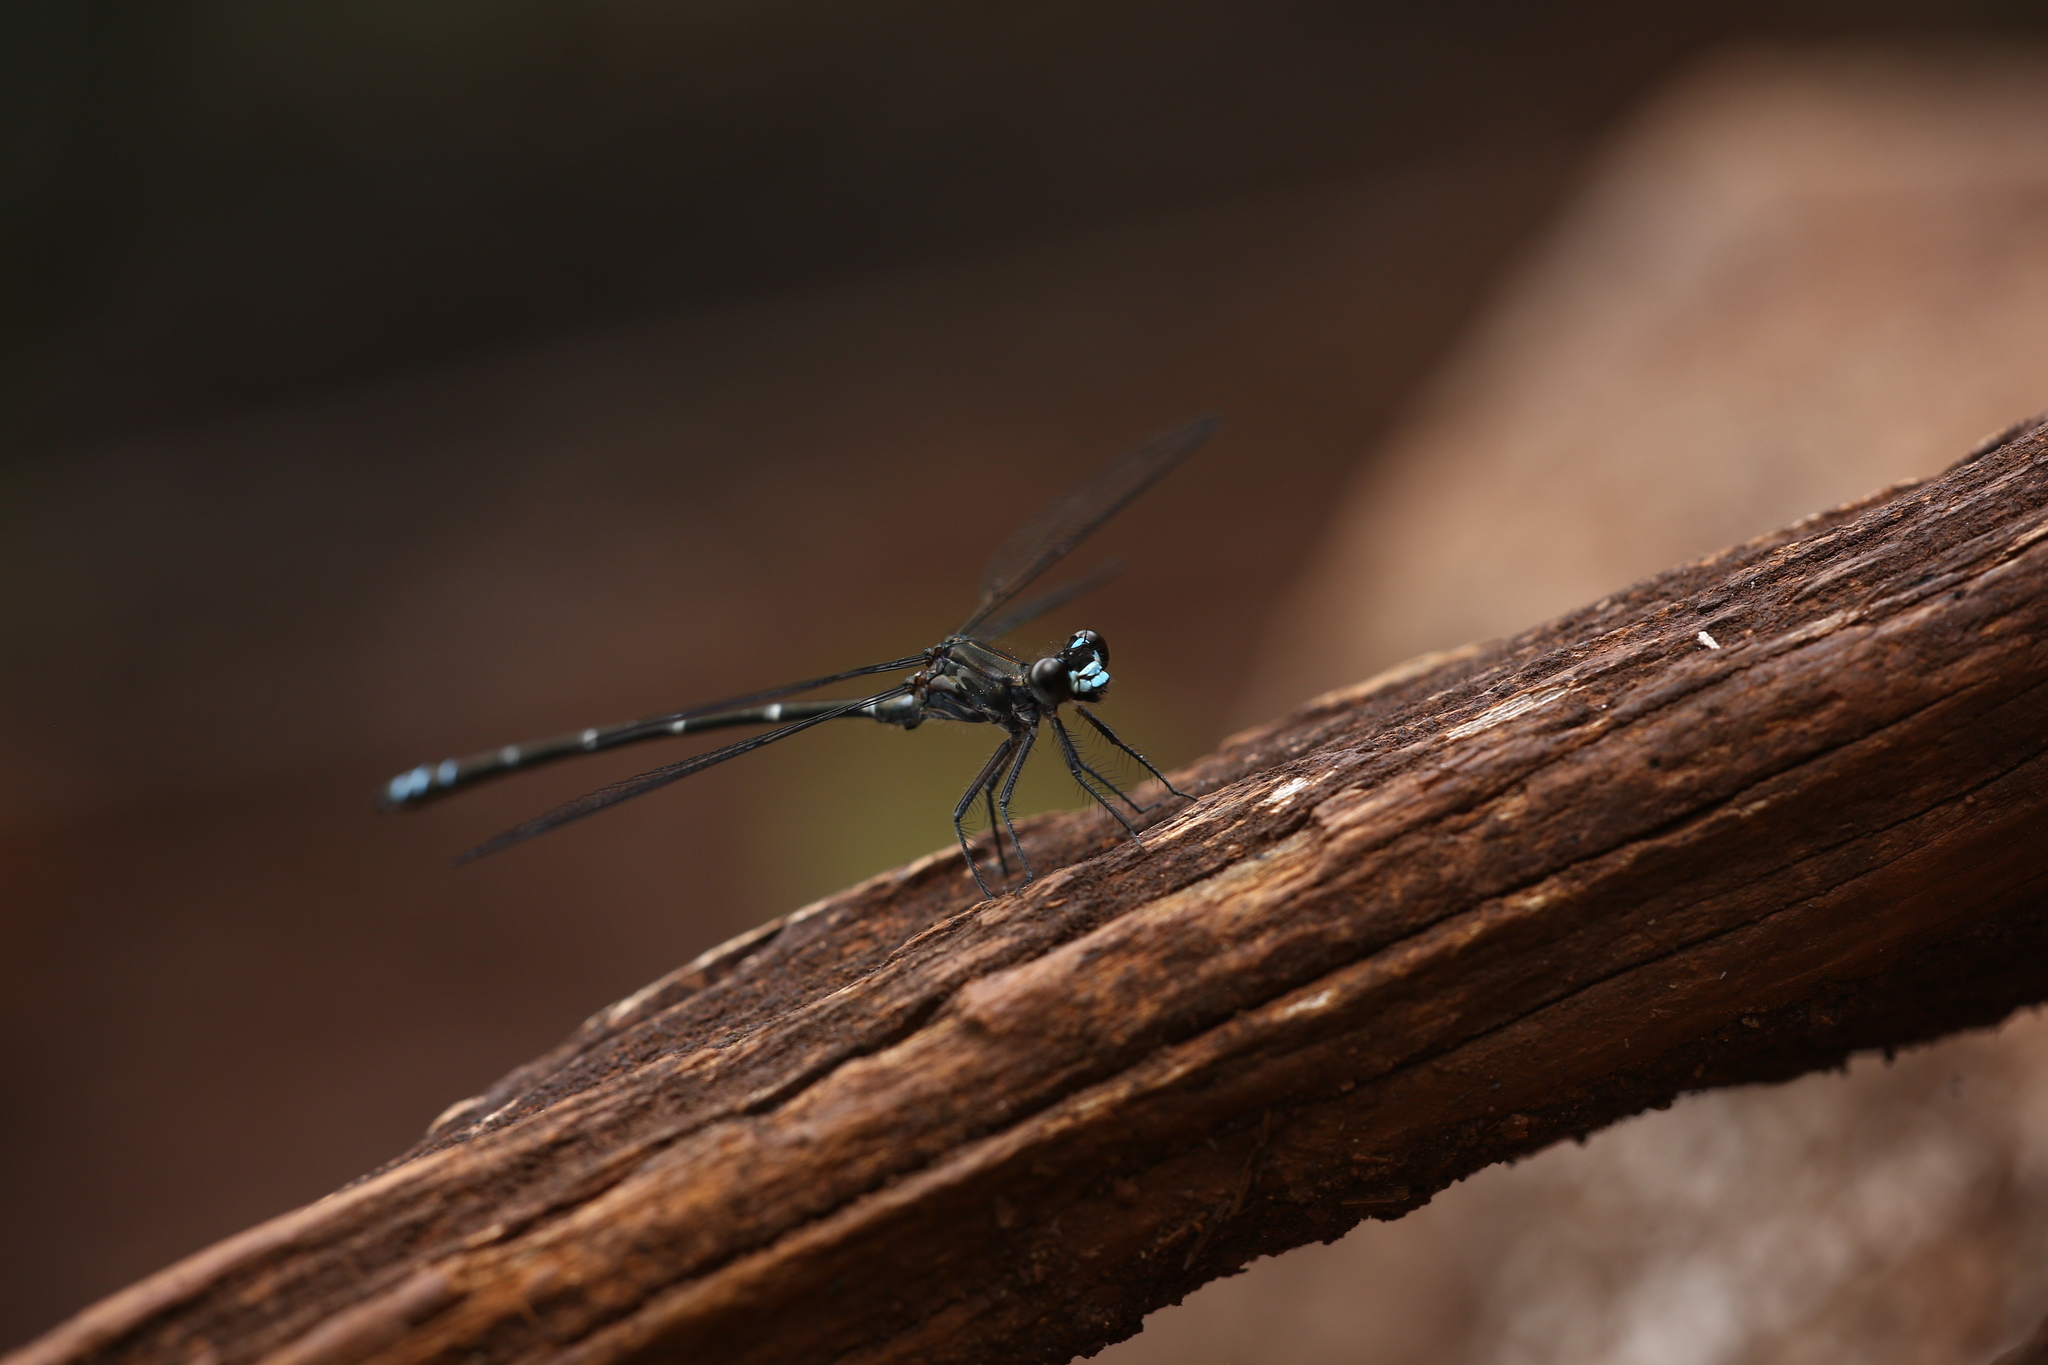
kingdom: Animalia
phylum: Arthropoda
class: Insecta
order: Odonata
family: Argiolestidae
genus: Caledopteryx
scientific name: Caledopteryx maculata
